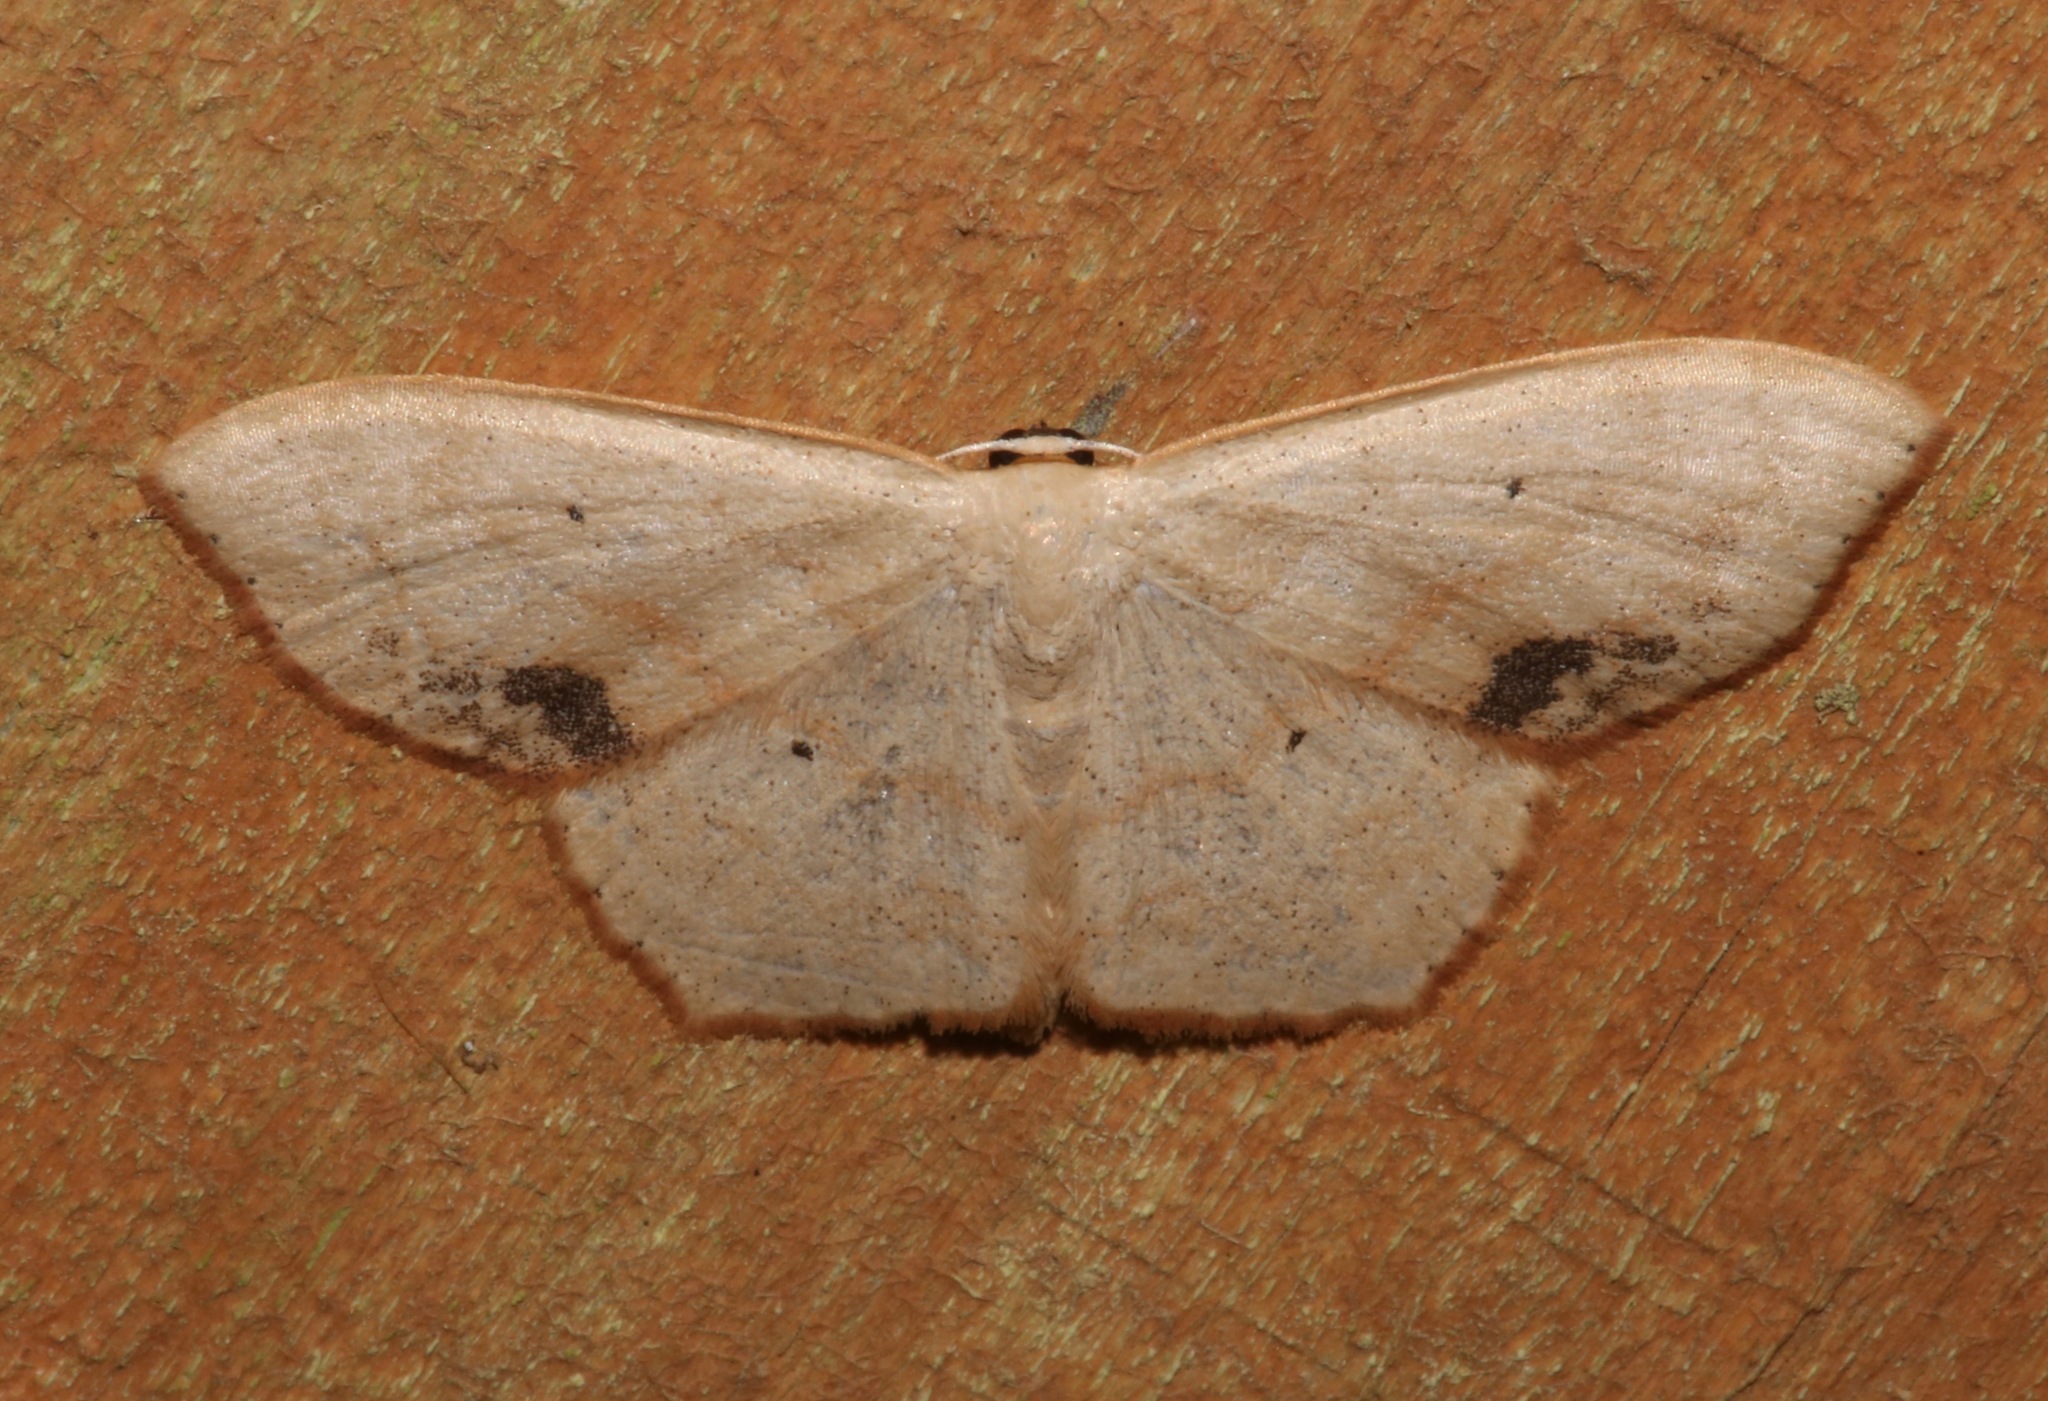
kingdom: Animalia
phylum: Arthropoda
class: Insecta
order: Lepidoptera
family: Geometridae
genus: Scopula
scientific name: Scopula timandrata
